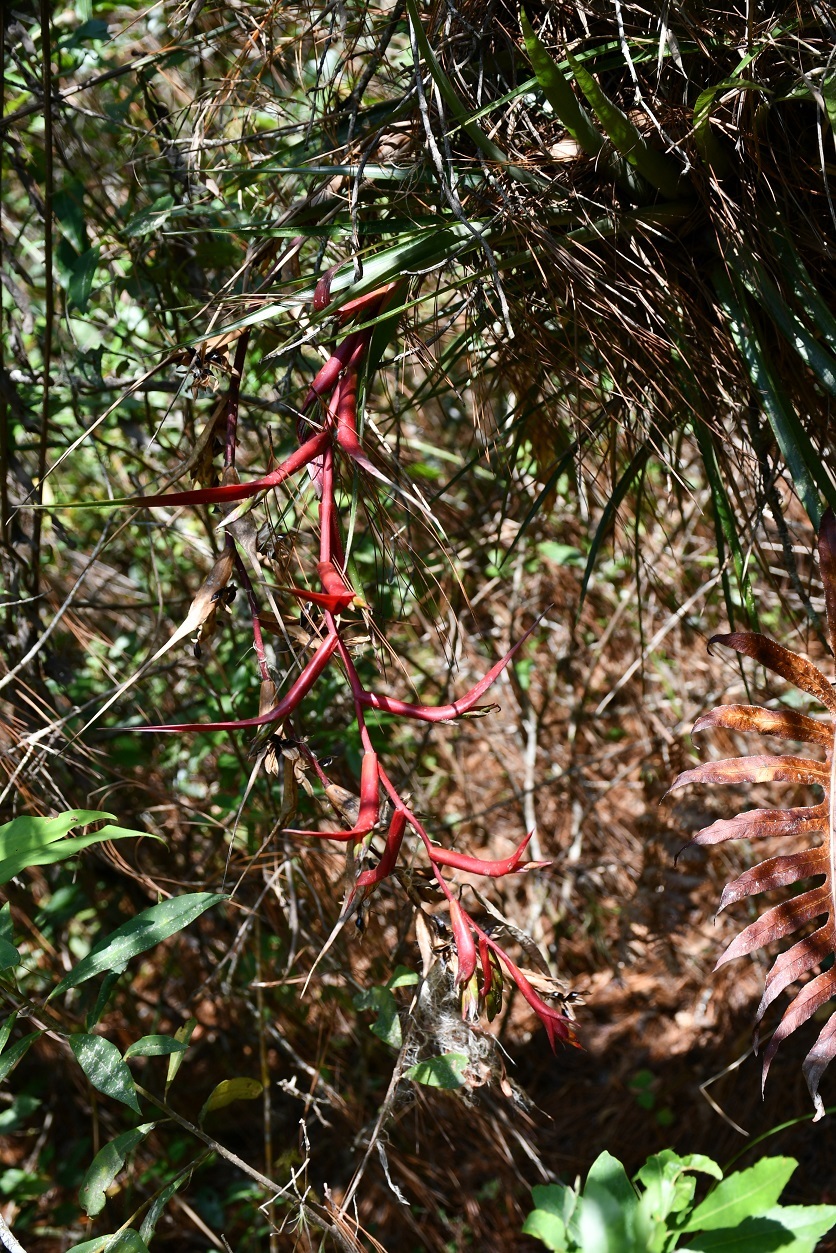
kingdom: Plantae
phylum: Tracheophyta
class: Liliopsida
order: Poales
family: Bromeliaceae
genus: Tillandsia
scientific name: Tillandsia leiboldiana
